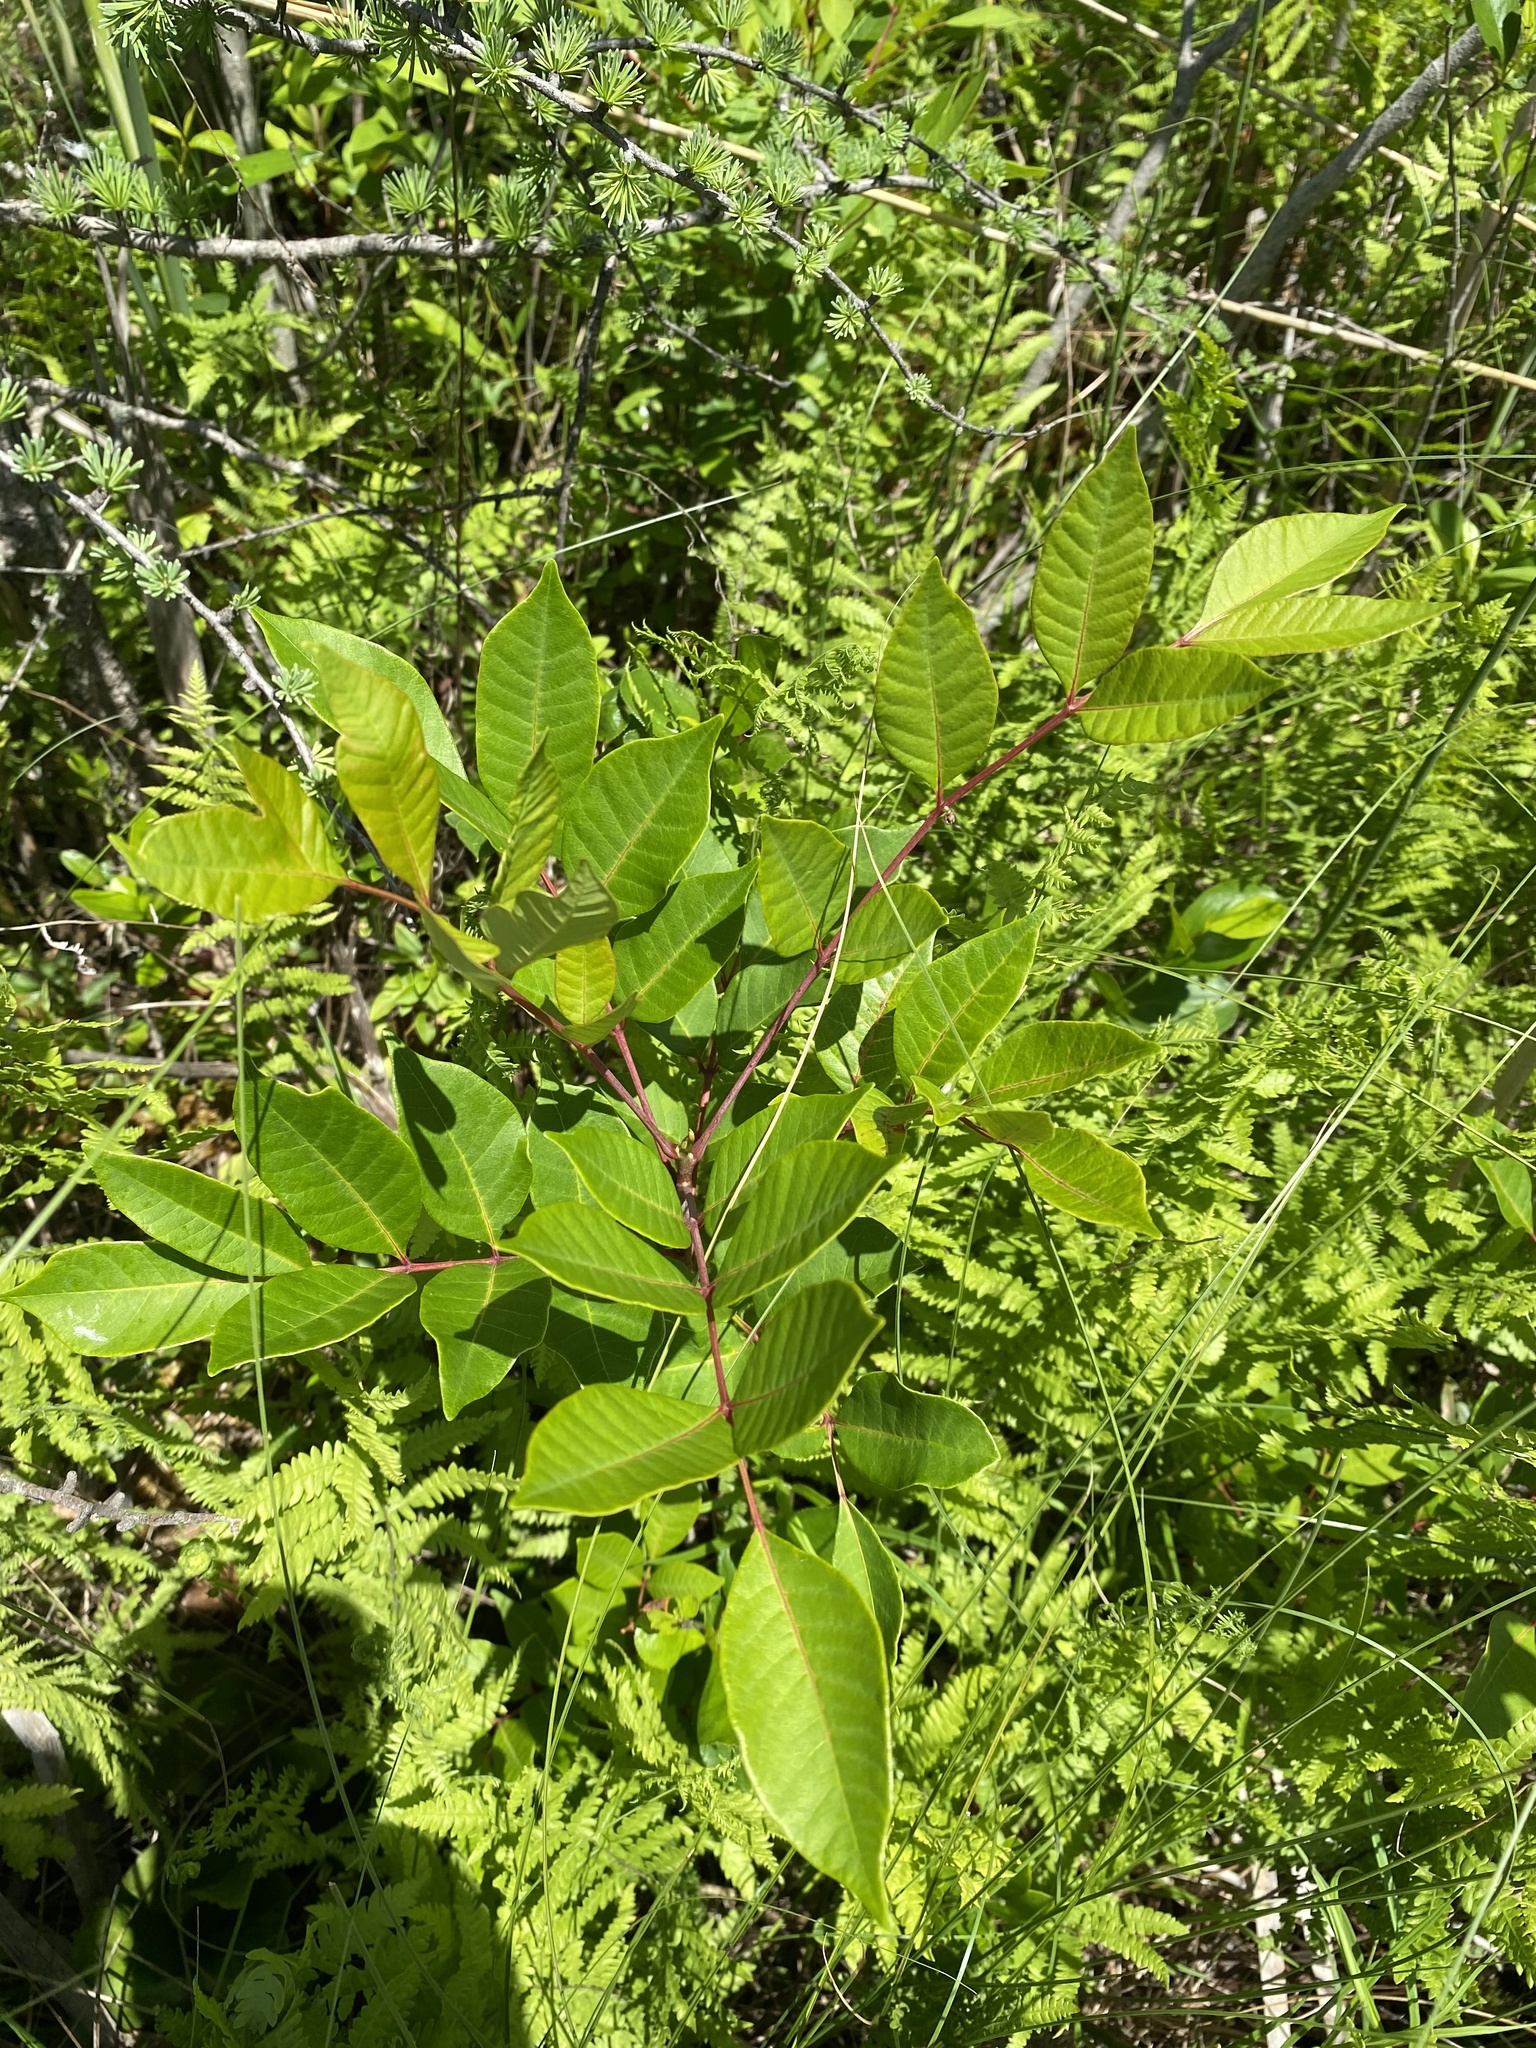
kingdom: Plantae
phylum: Tracheophyta
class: Magnoliopsida
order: Sapindales
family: Anacardiaceae
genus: Toxicodendron
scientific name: Toxicodendron vernix
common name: Poison sumac
